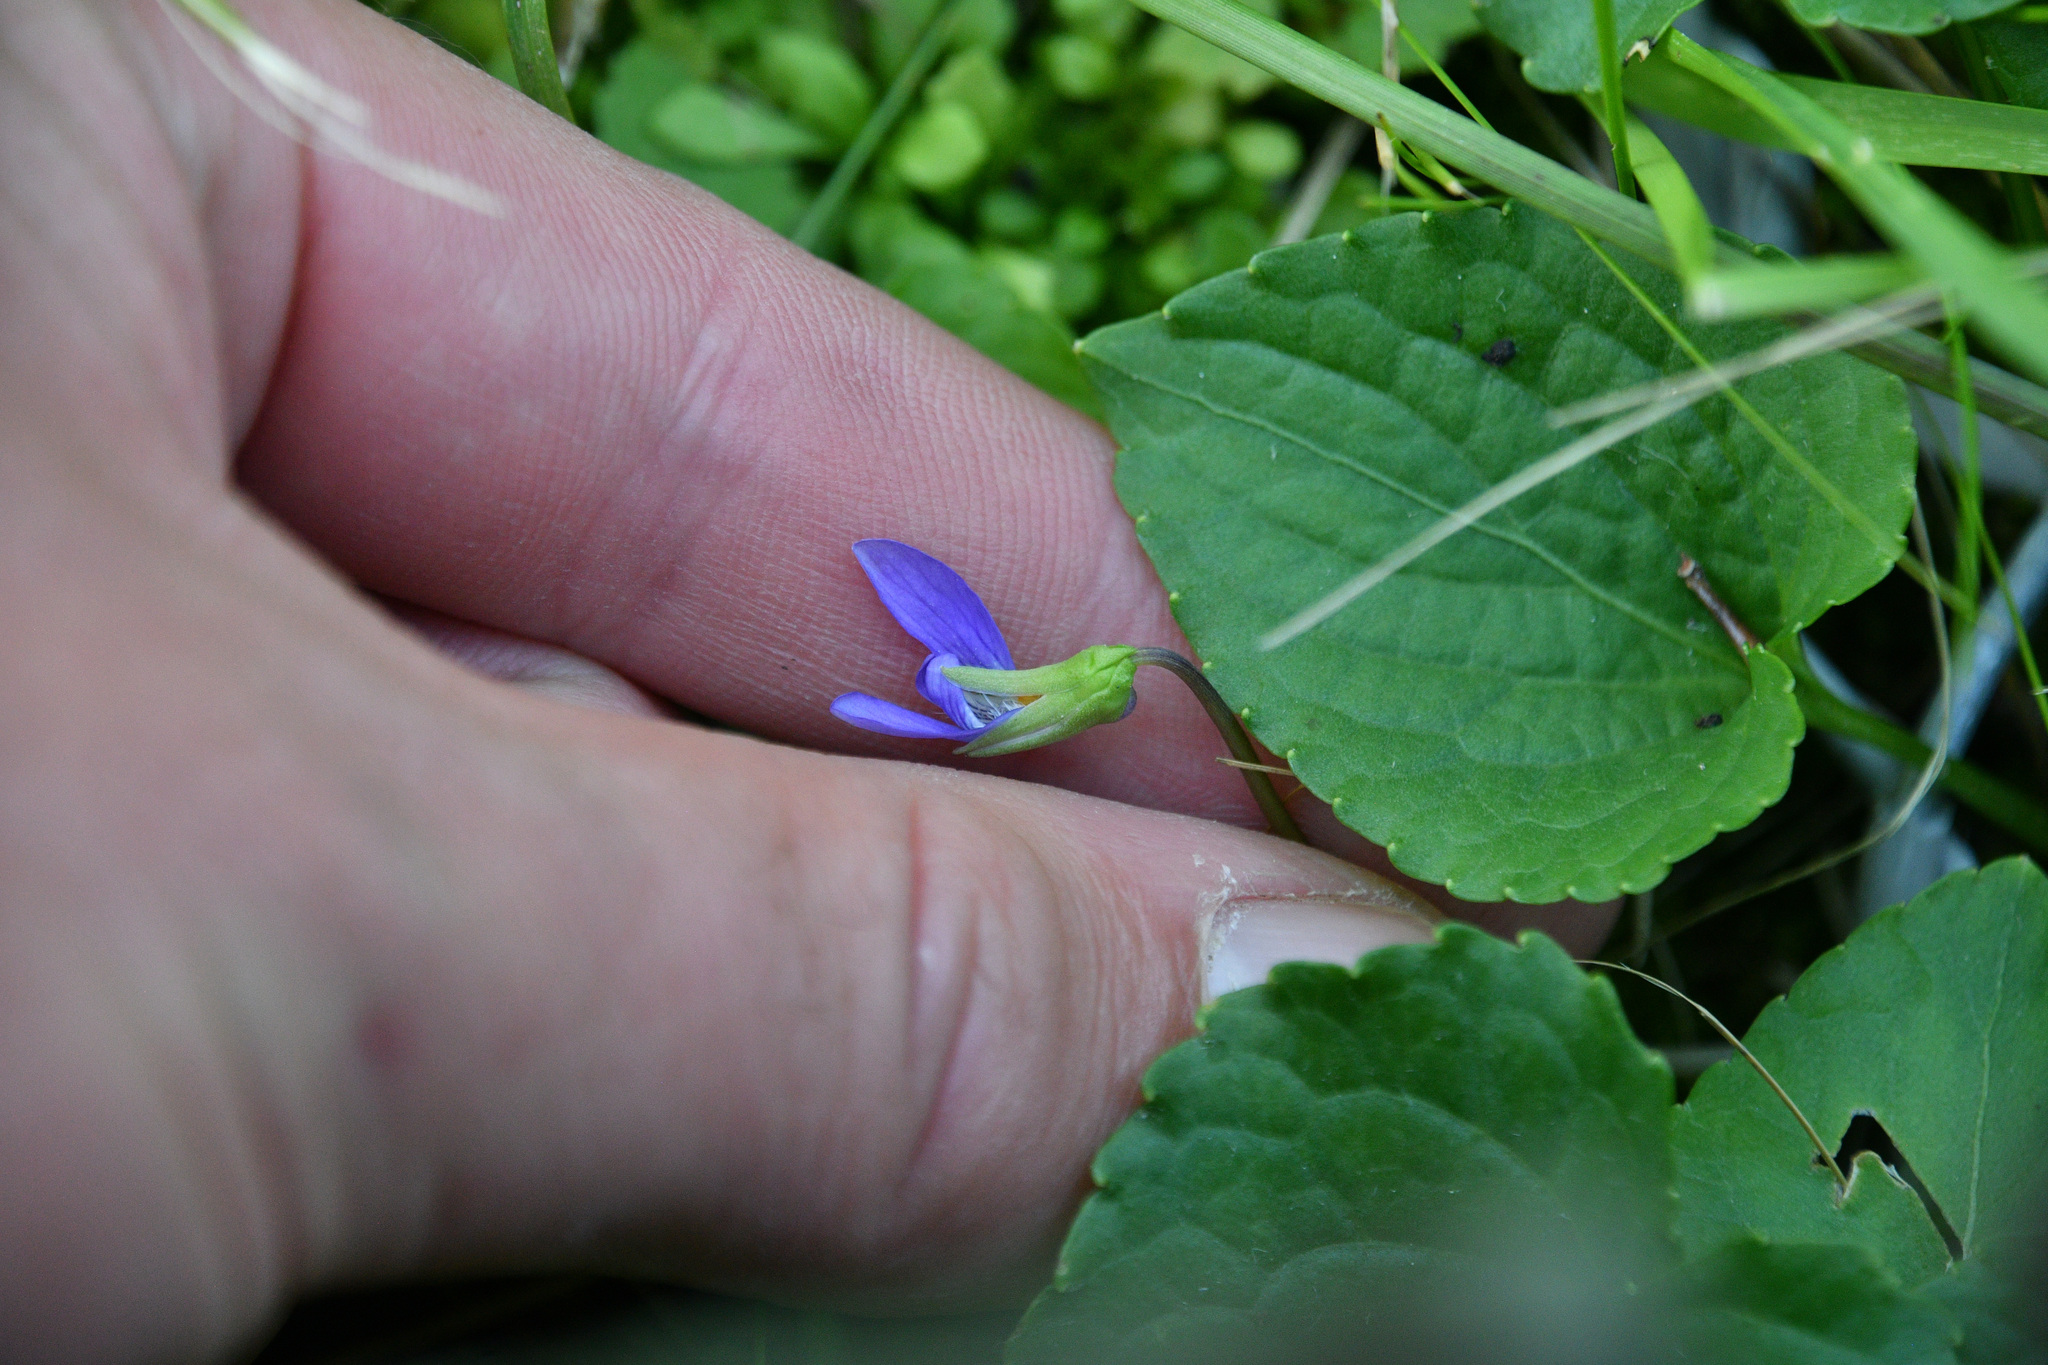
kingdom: Plantae
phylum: Tracheophyta
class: Magnoliopsida
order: Malpighiales
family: Violaceae
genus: Viola
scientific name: Viola nephrophylla
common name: Blue meadow violet
